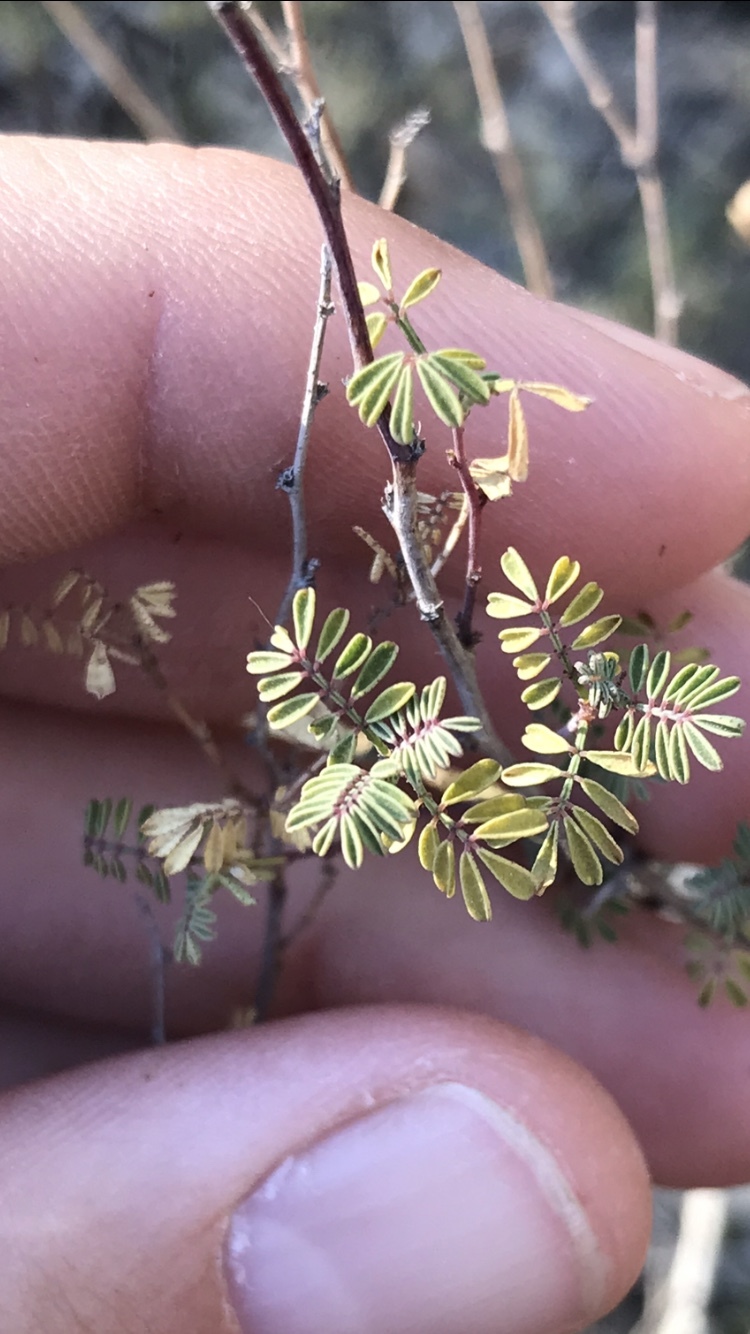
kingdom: Plantae
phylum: Tracheophyta
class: Magnoliopsida
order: Fabales
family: Fabaceae
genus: Dalea
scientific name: Dalea frutescens
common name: Black dalea
